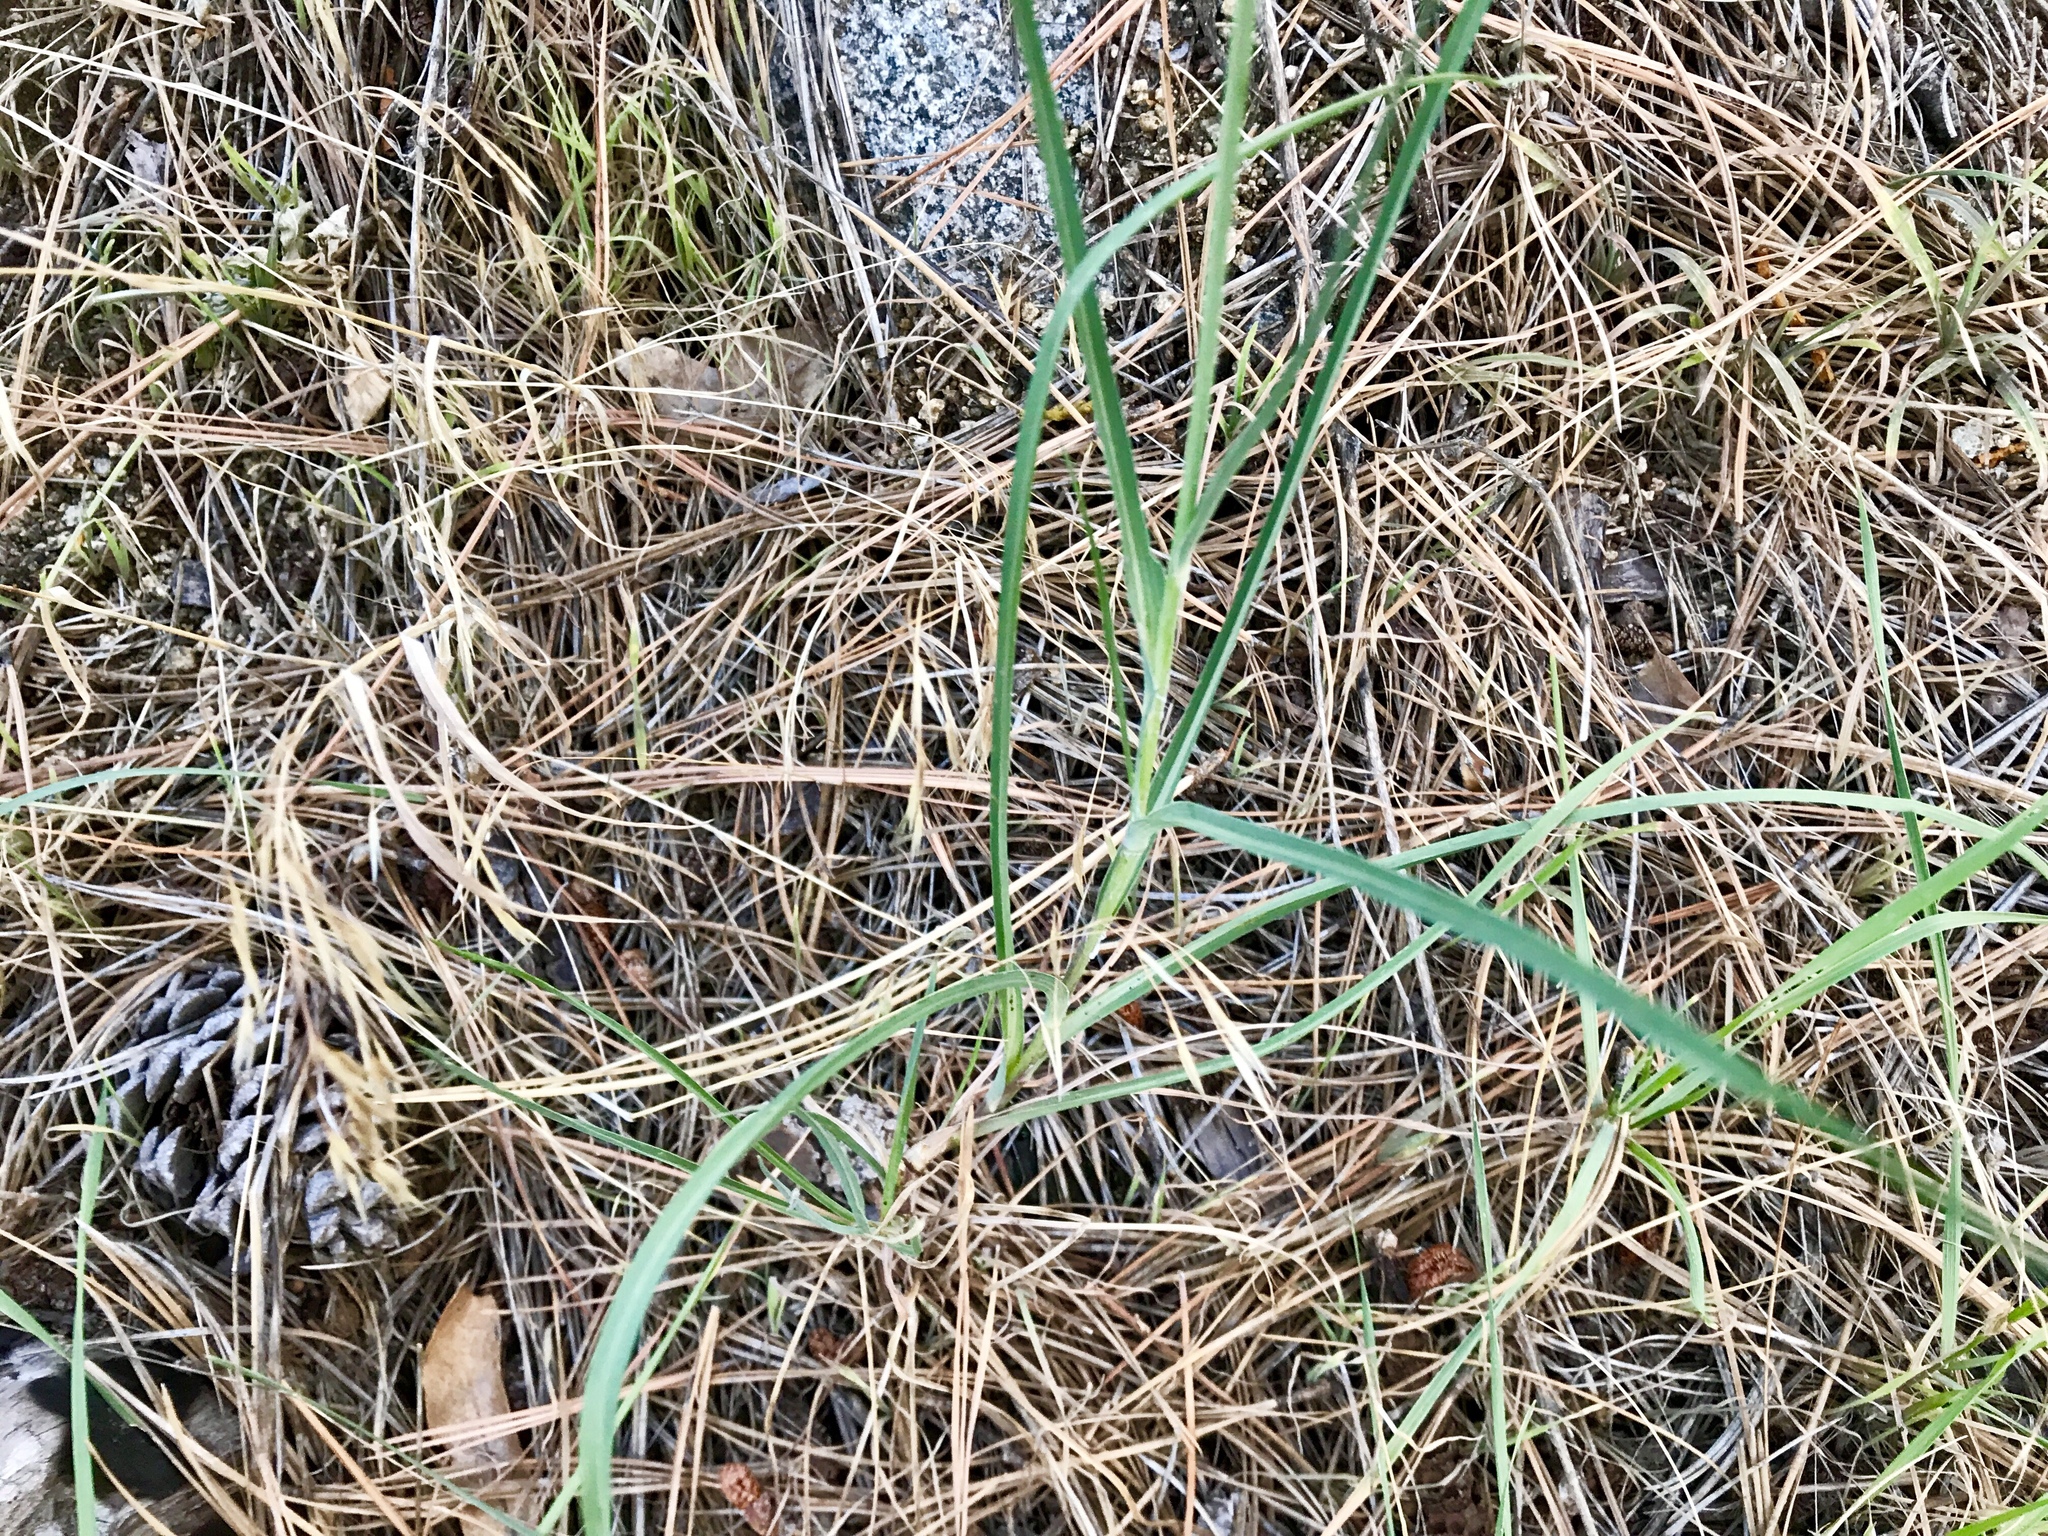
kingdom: Plantae
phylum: Tracheophyta
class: Magnoliopsida
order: Asterales
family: Asteraceae
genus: Tragopogon
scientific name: Tragopogon dubius
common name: Yellow salsify
